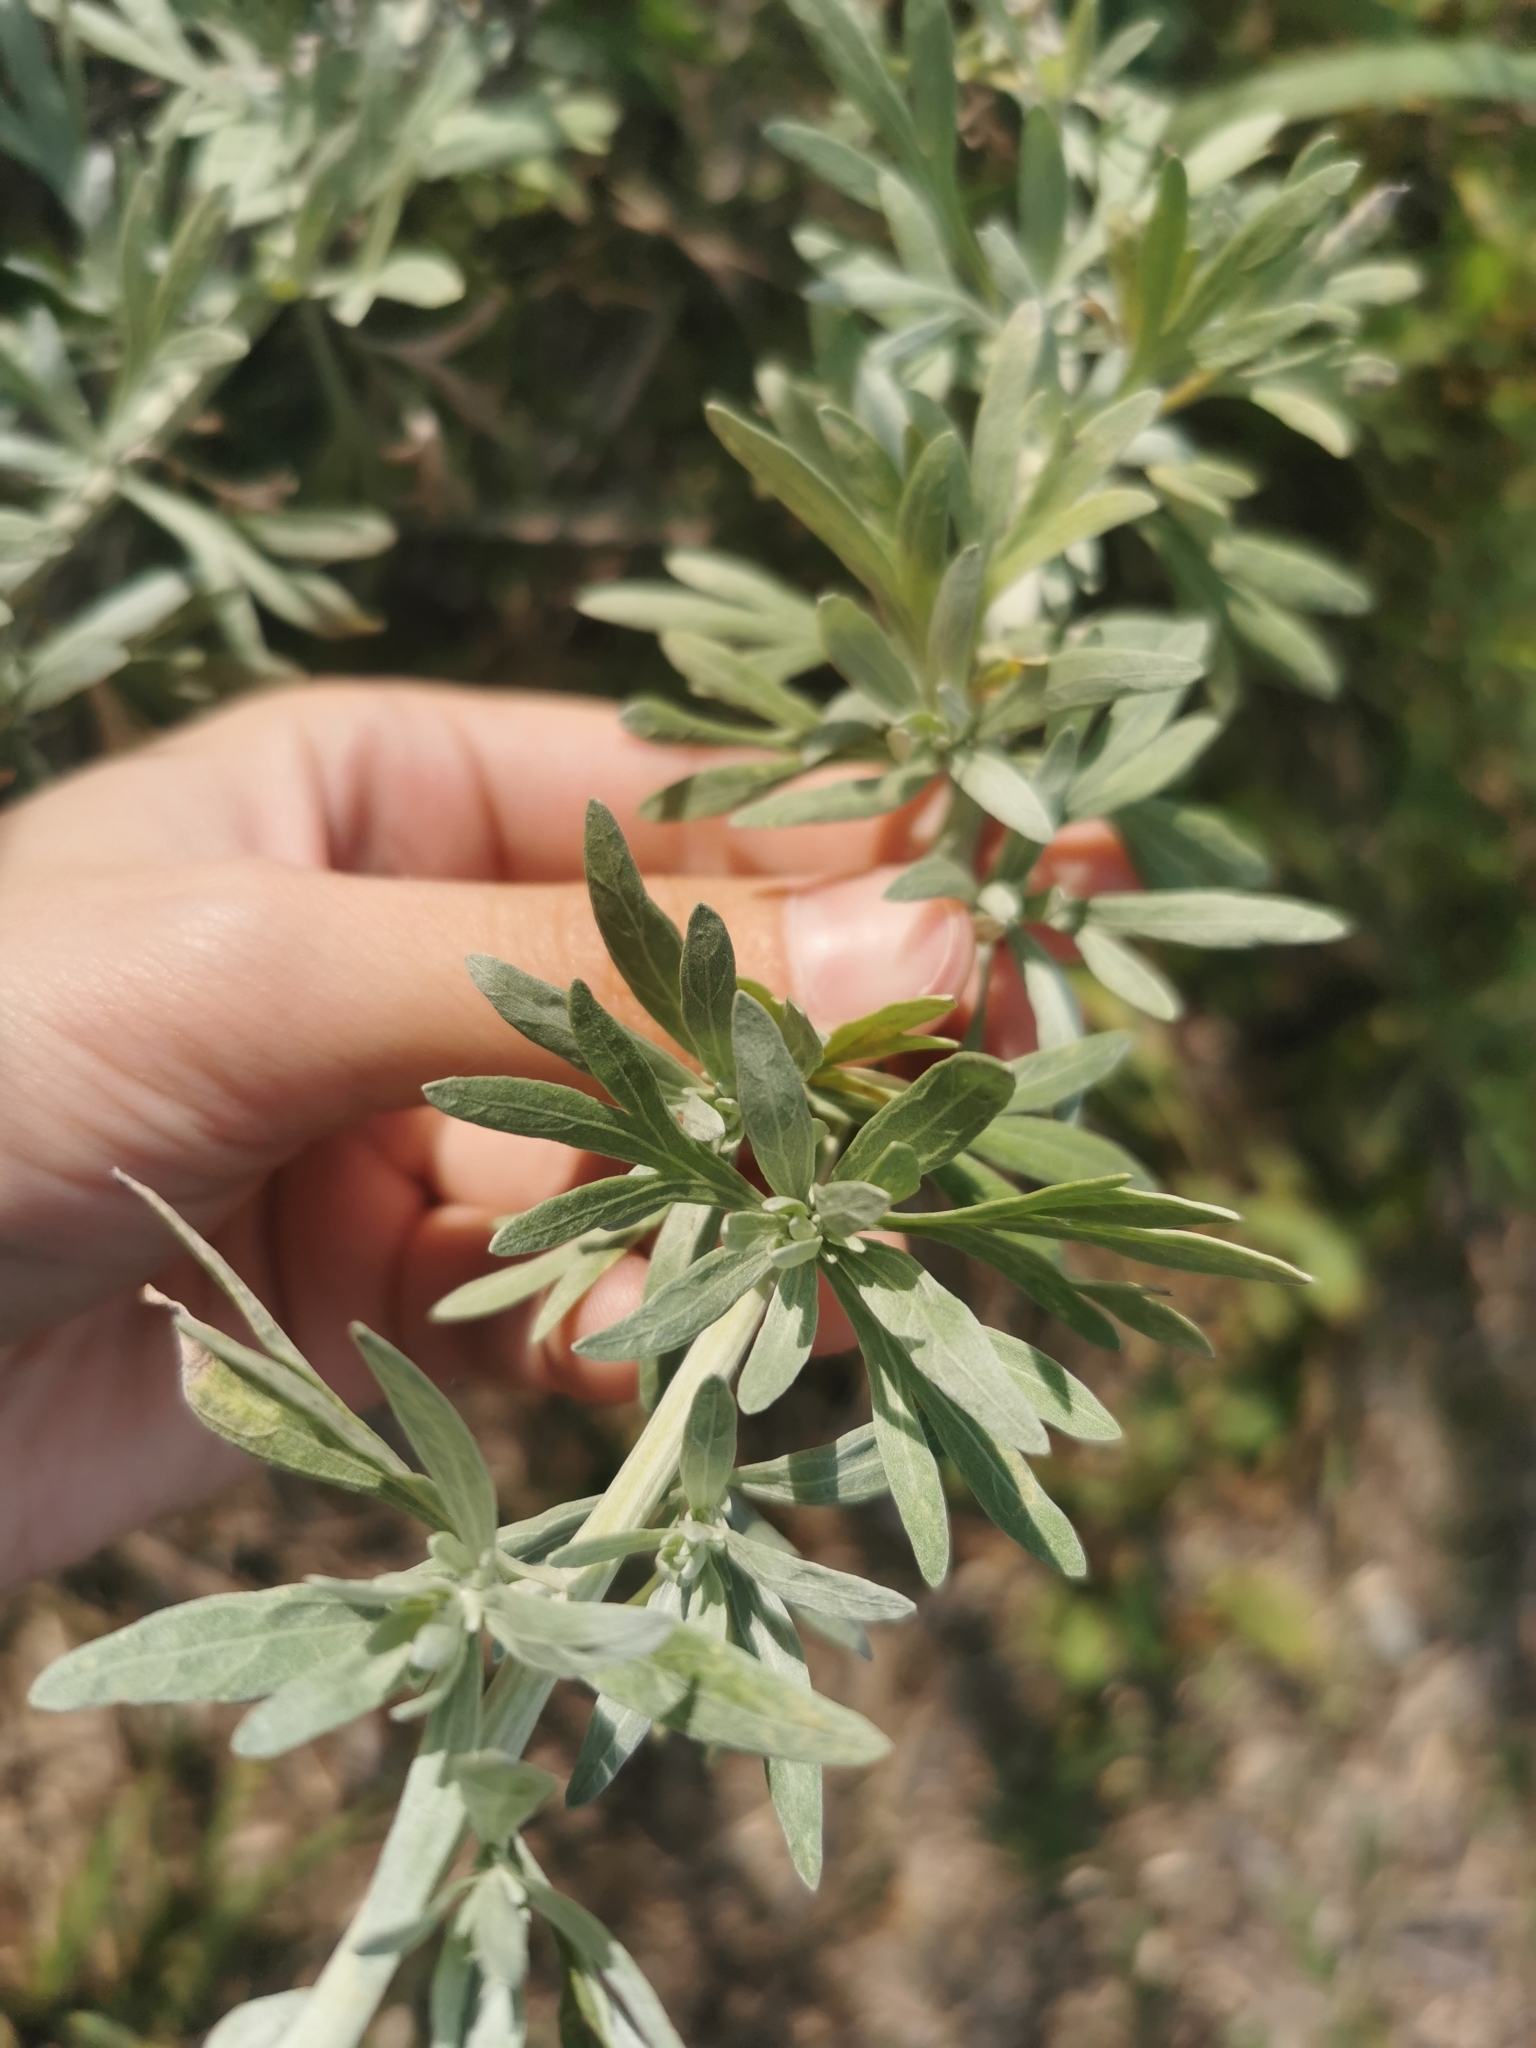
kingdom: Plantae
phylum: Tracheophyta
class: Magnoliopsida
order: Asterales
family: Asteraceae
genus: Artemisia
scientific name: Artemisia absinthium
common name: Wormwood
